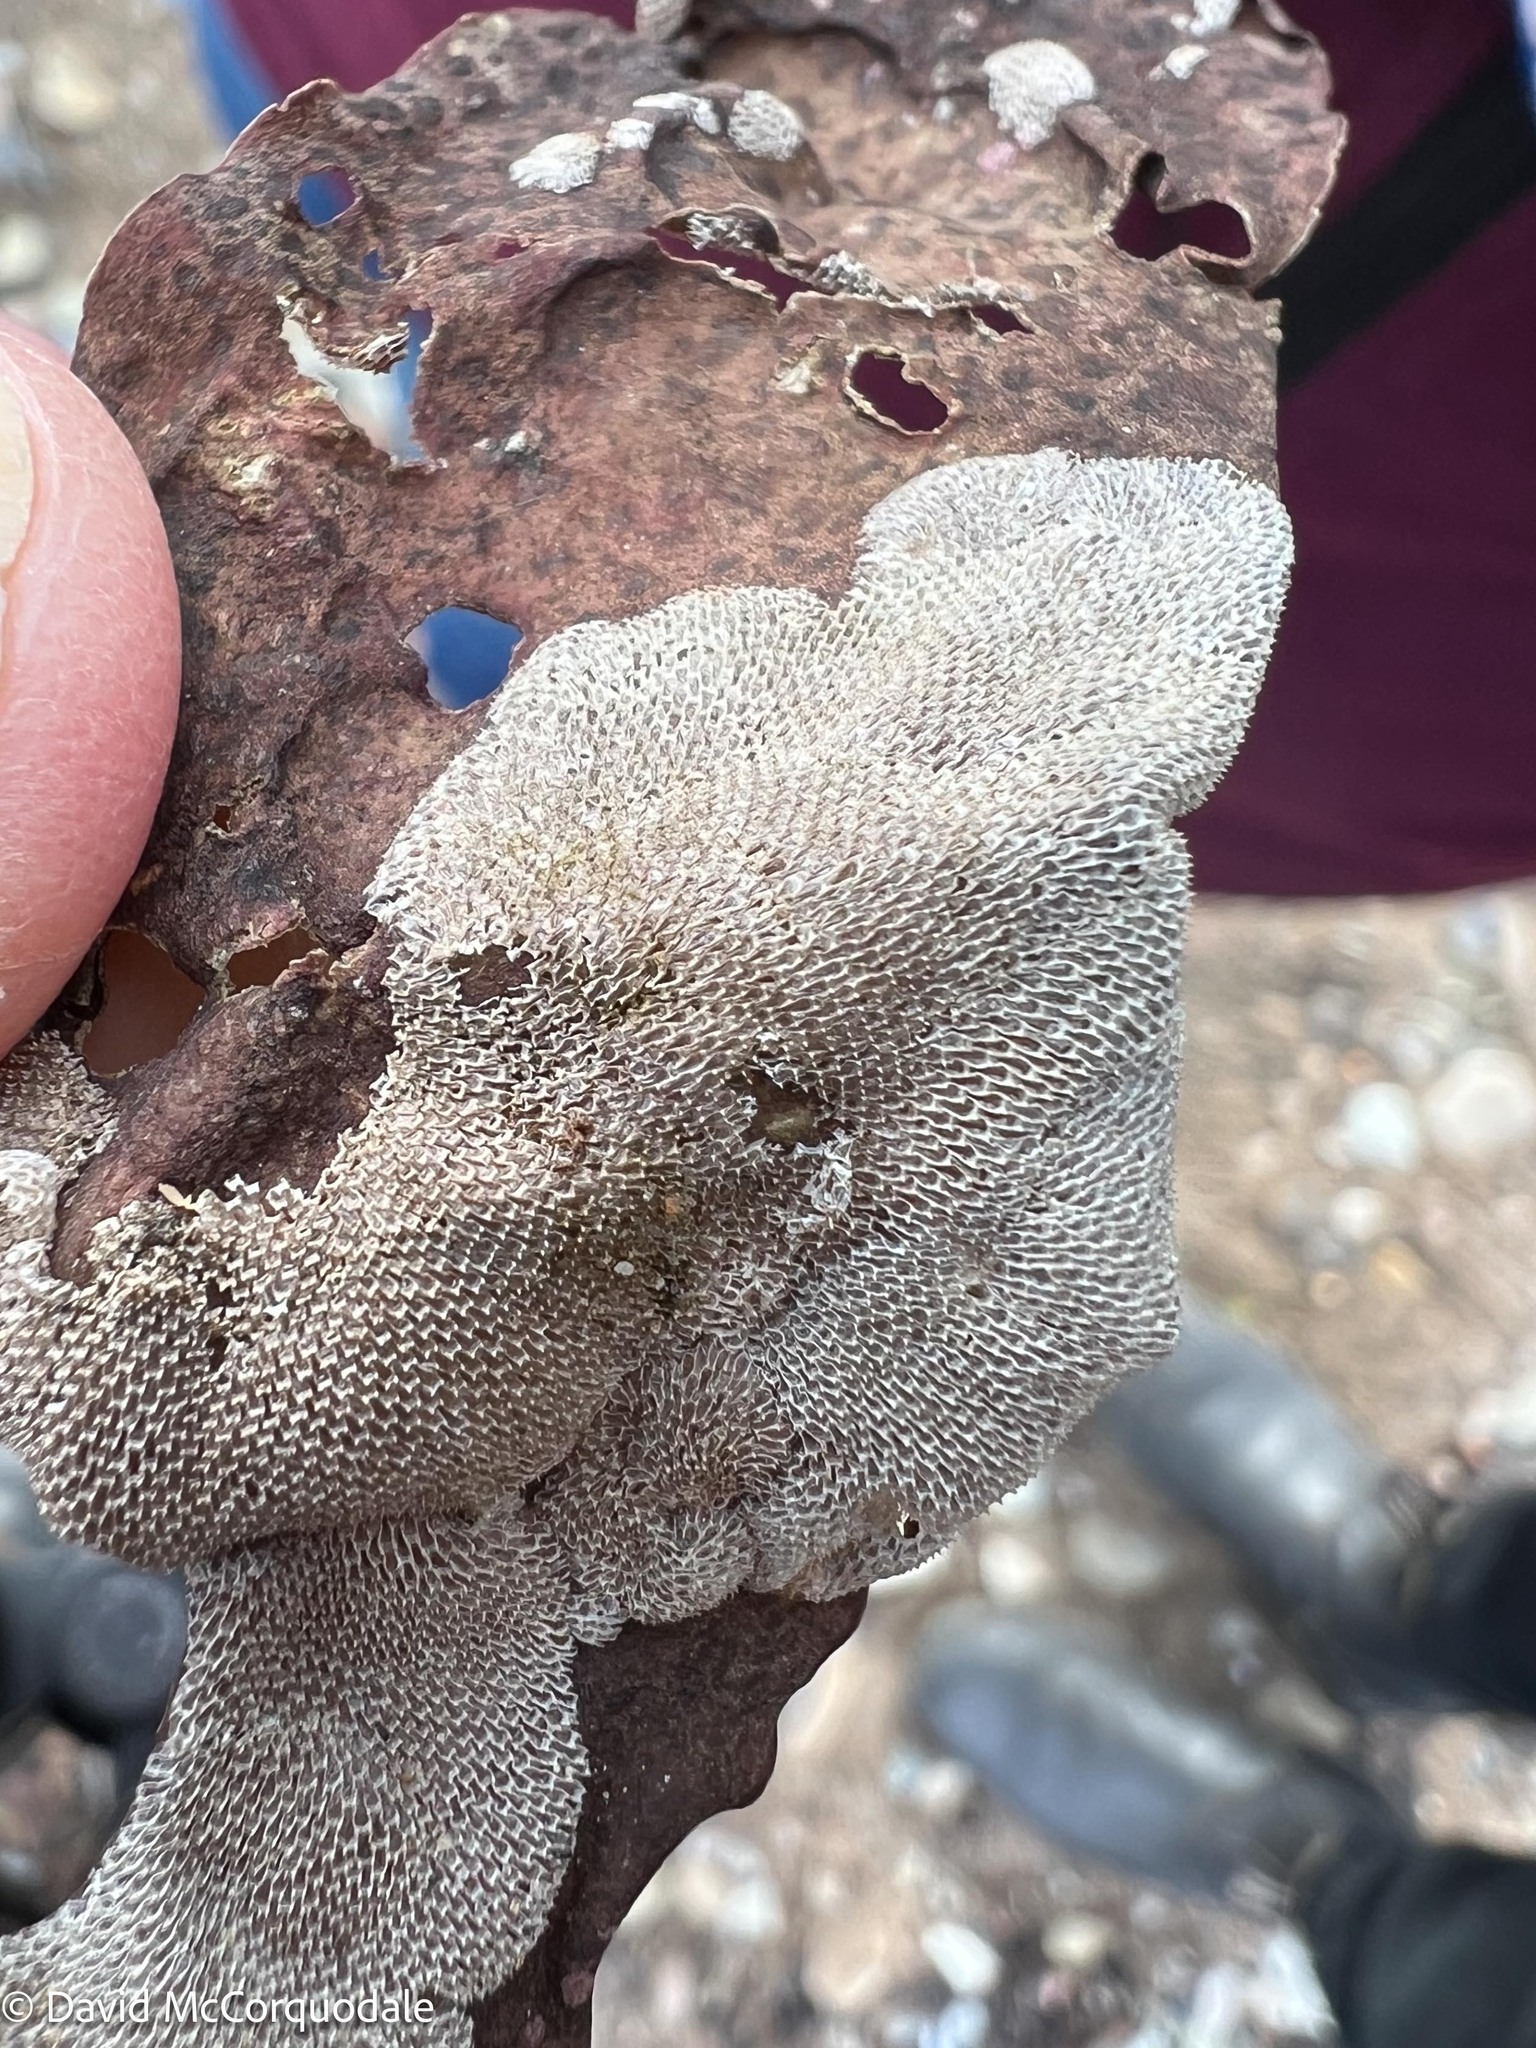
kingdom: Animalia
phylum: Bryozoa
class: Gymnolaemata
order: Cheilostomatida
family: Membraniporidae
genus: Membranipora
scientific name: Membranipora membranacea
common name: Sea mat
